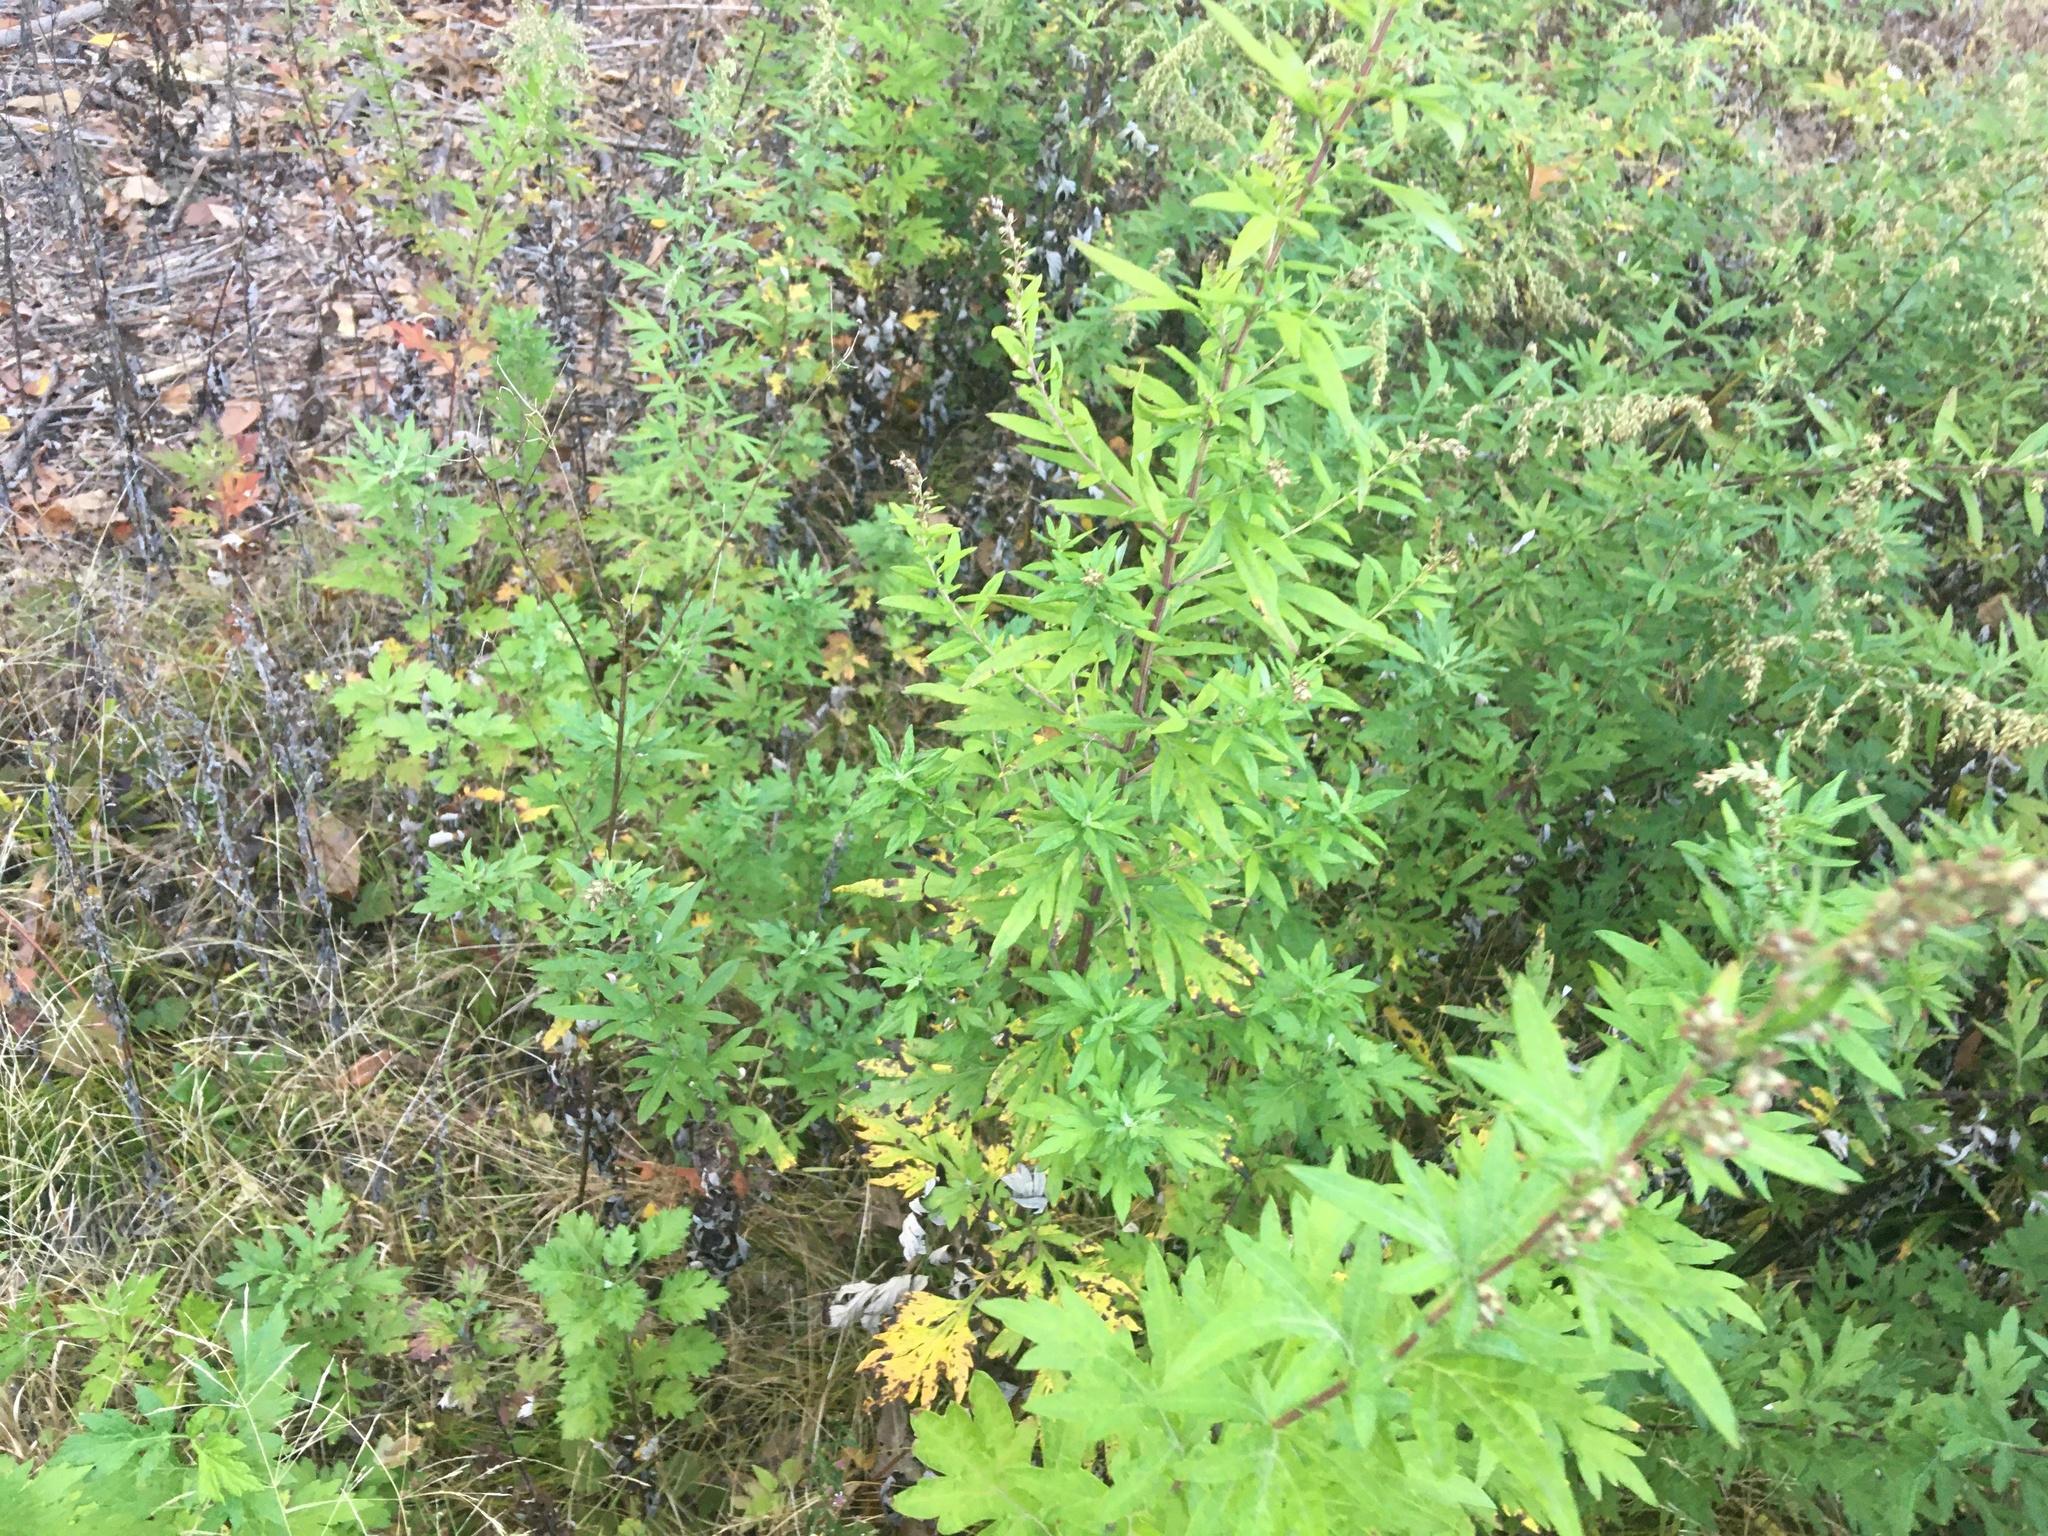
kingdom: Plantae
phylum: Tracheophyta
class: Magnoliopsida
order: Asterales
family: Asteraceae
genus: Artemisia
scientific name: Artemisia vulgaris
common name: Mugwort
